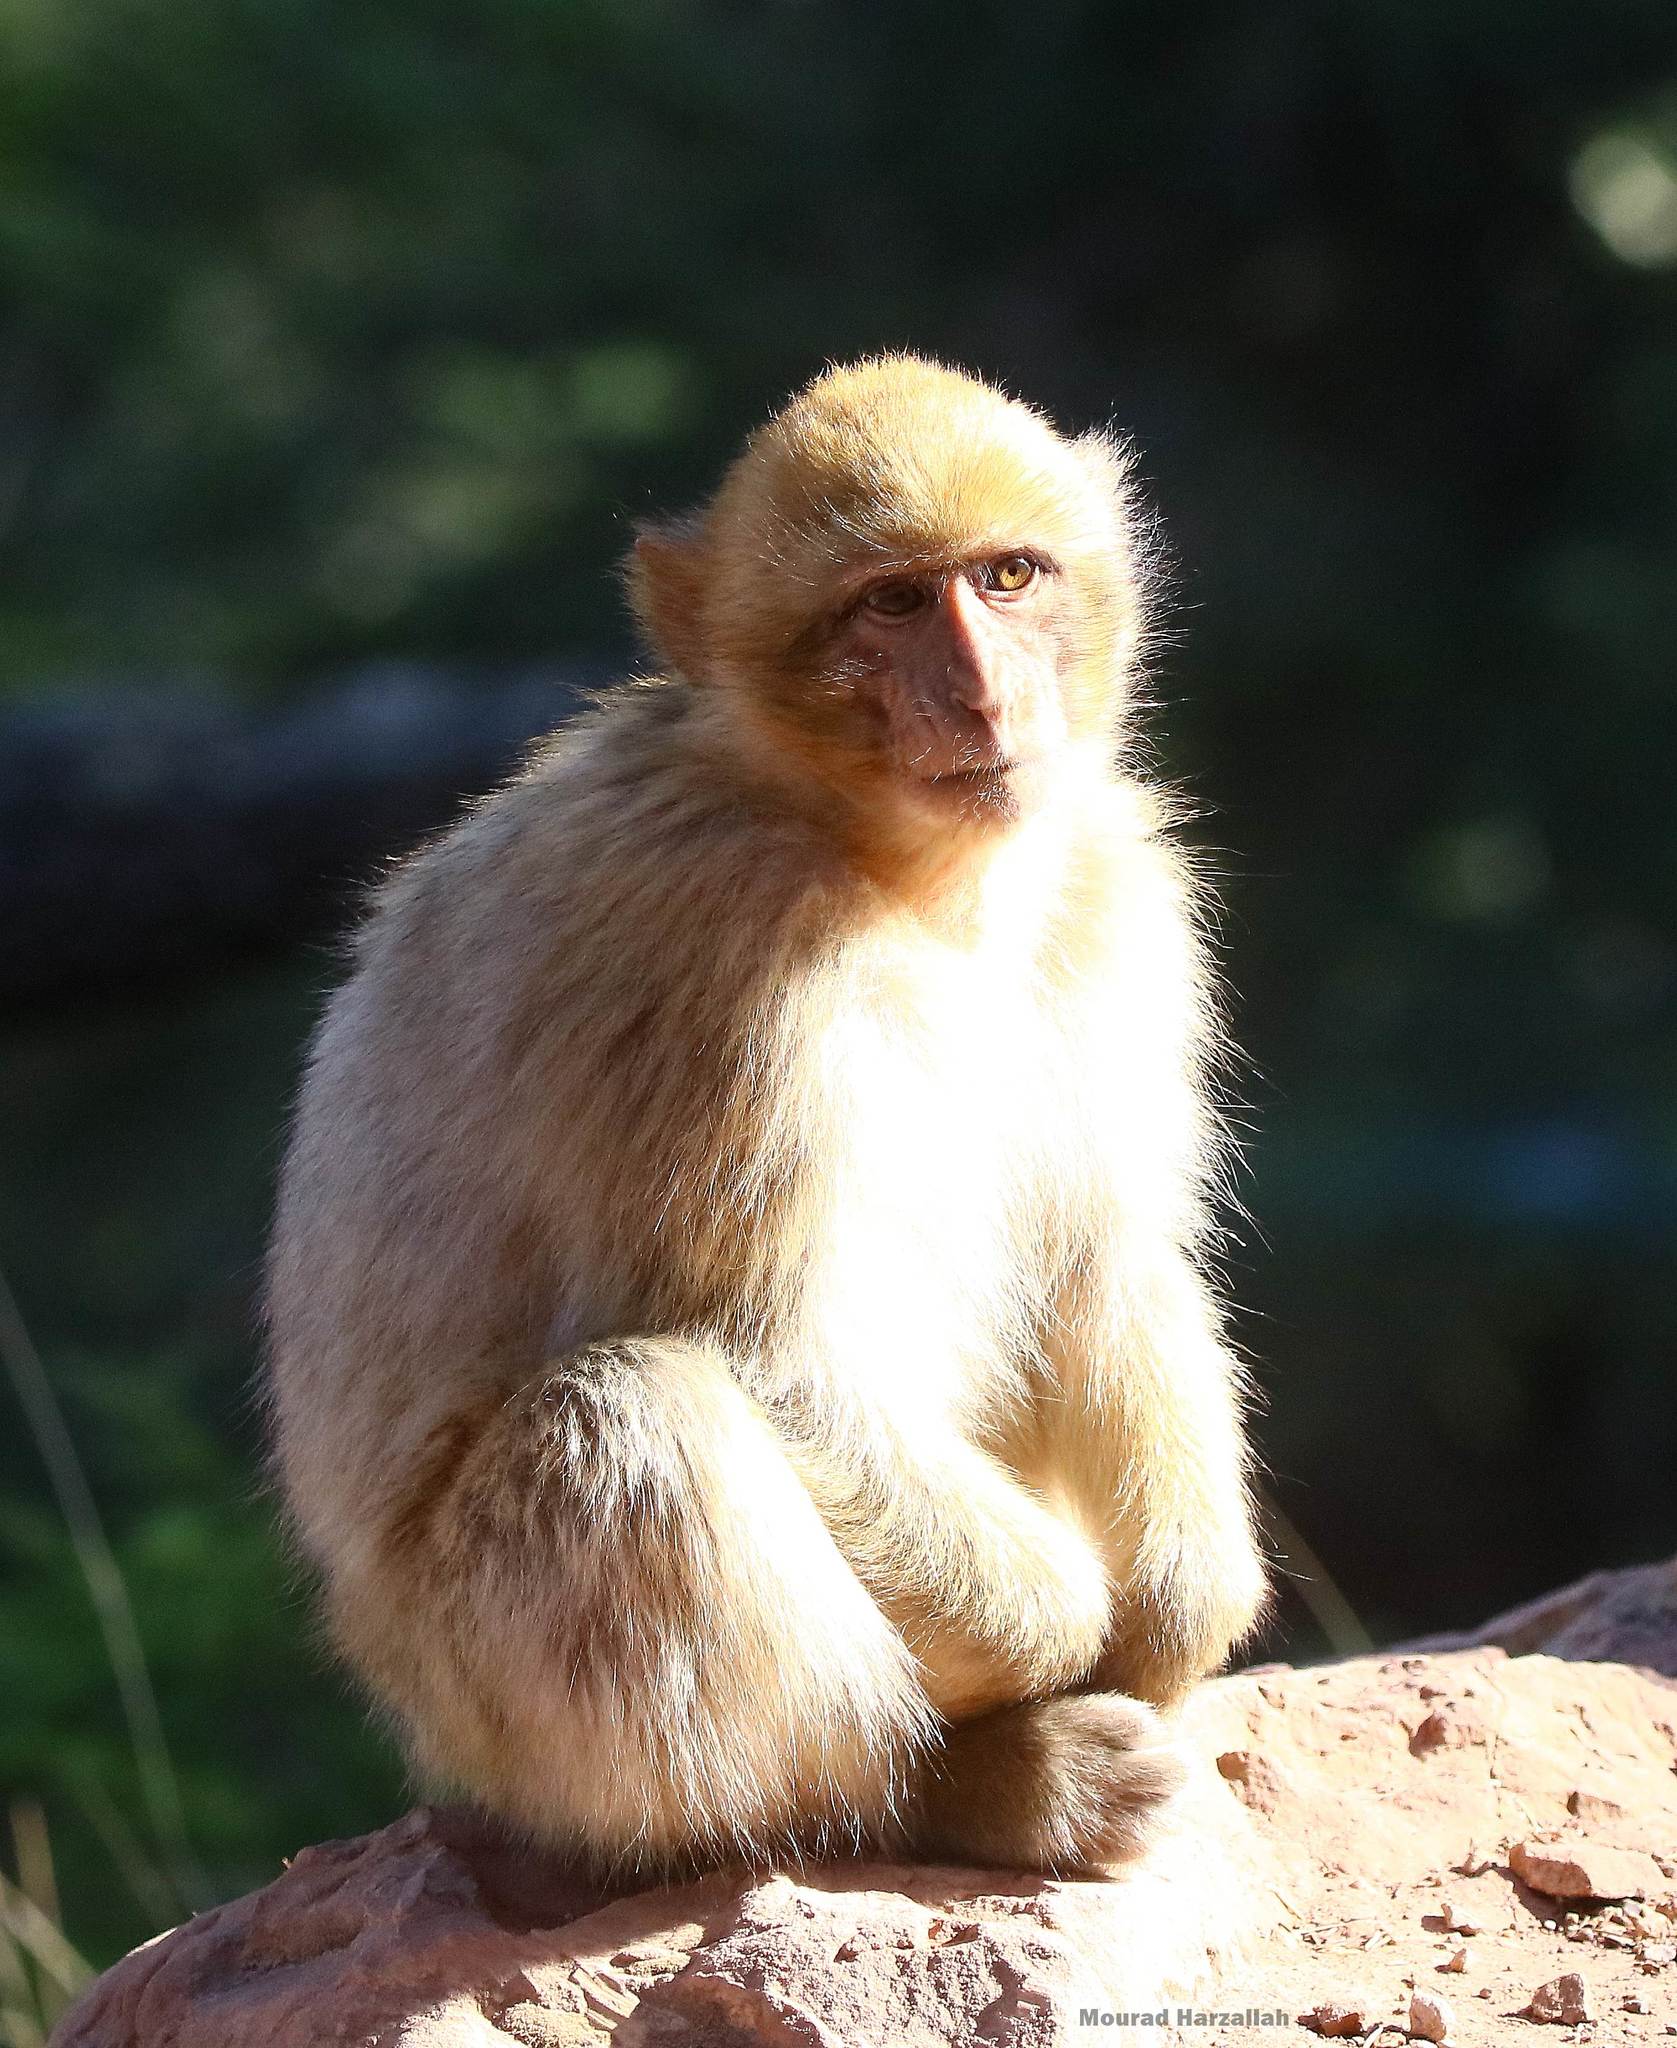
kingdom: Animalia
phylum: Chordata
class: Mammalia
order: Primates
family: Cercopithecidae
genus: Macaca
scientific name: Macaca sylvanus
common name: Barbary macaque
